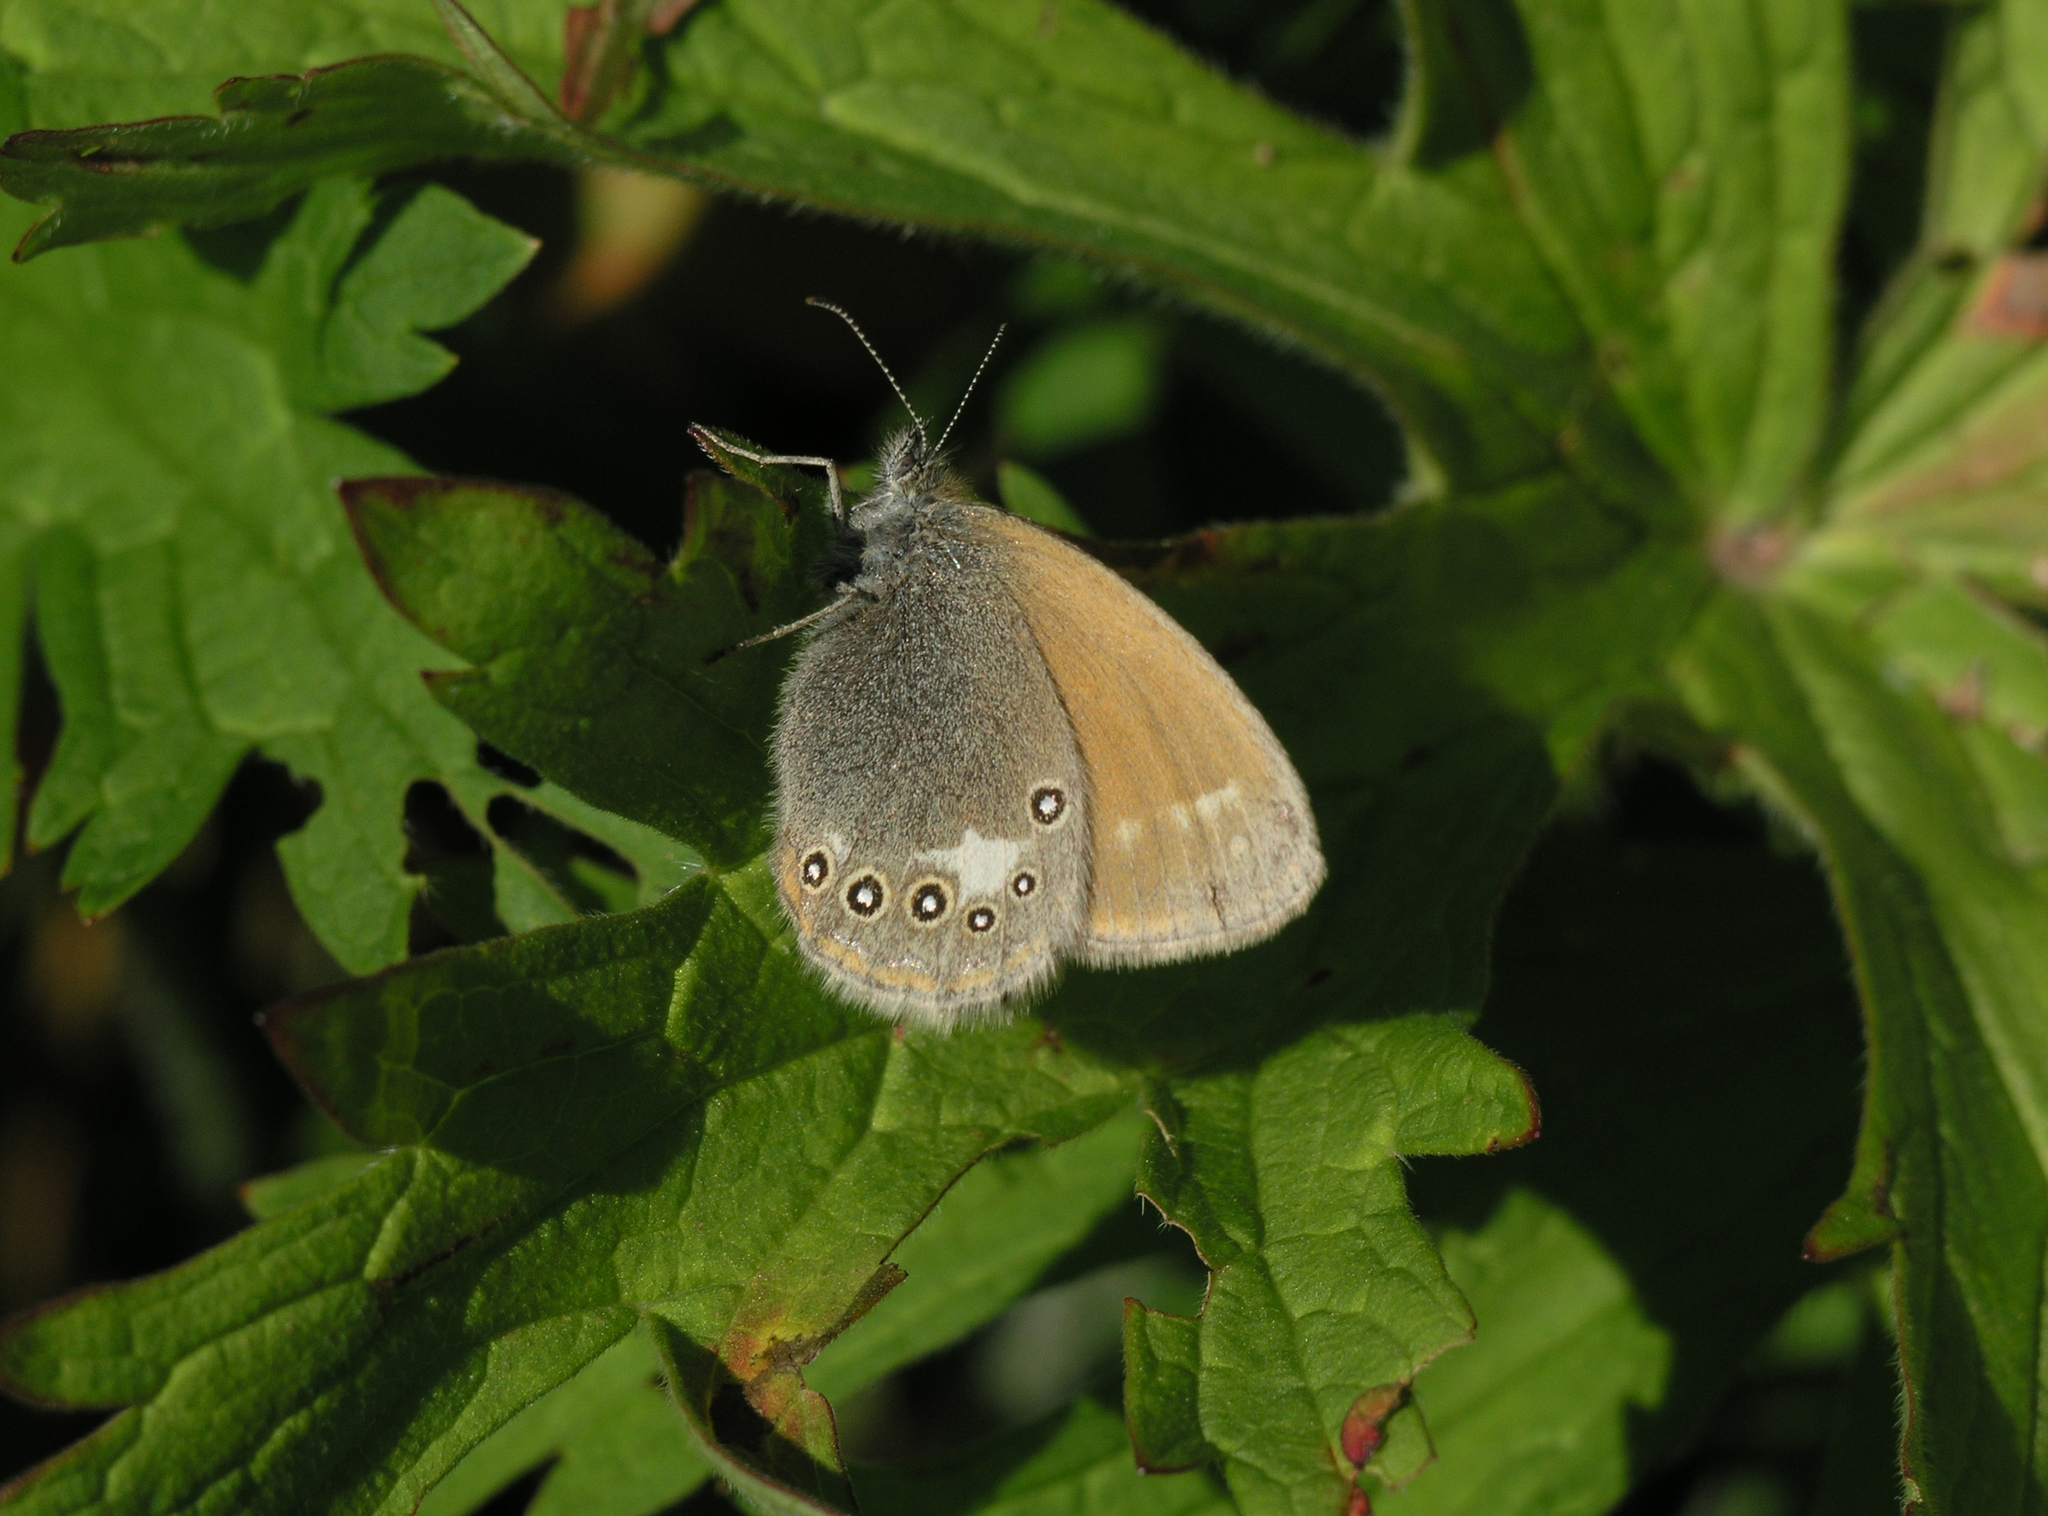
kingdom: Animalia
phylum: Arthropoda
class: Insecta
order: Lepidoptera
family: Nymphalidae
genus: Coenonympha
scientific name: Coenonympha iphis
